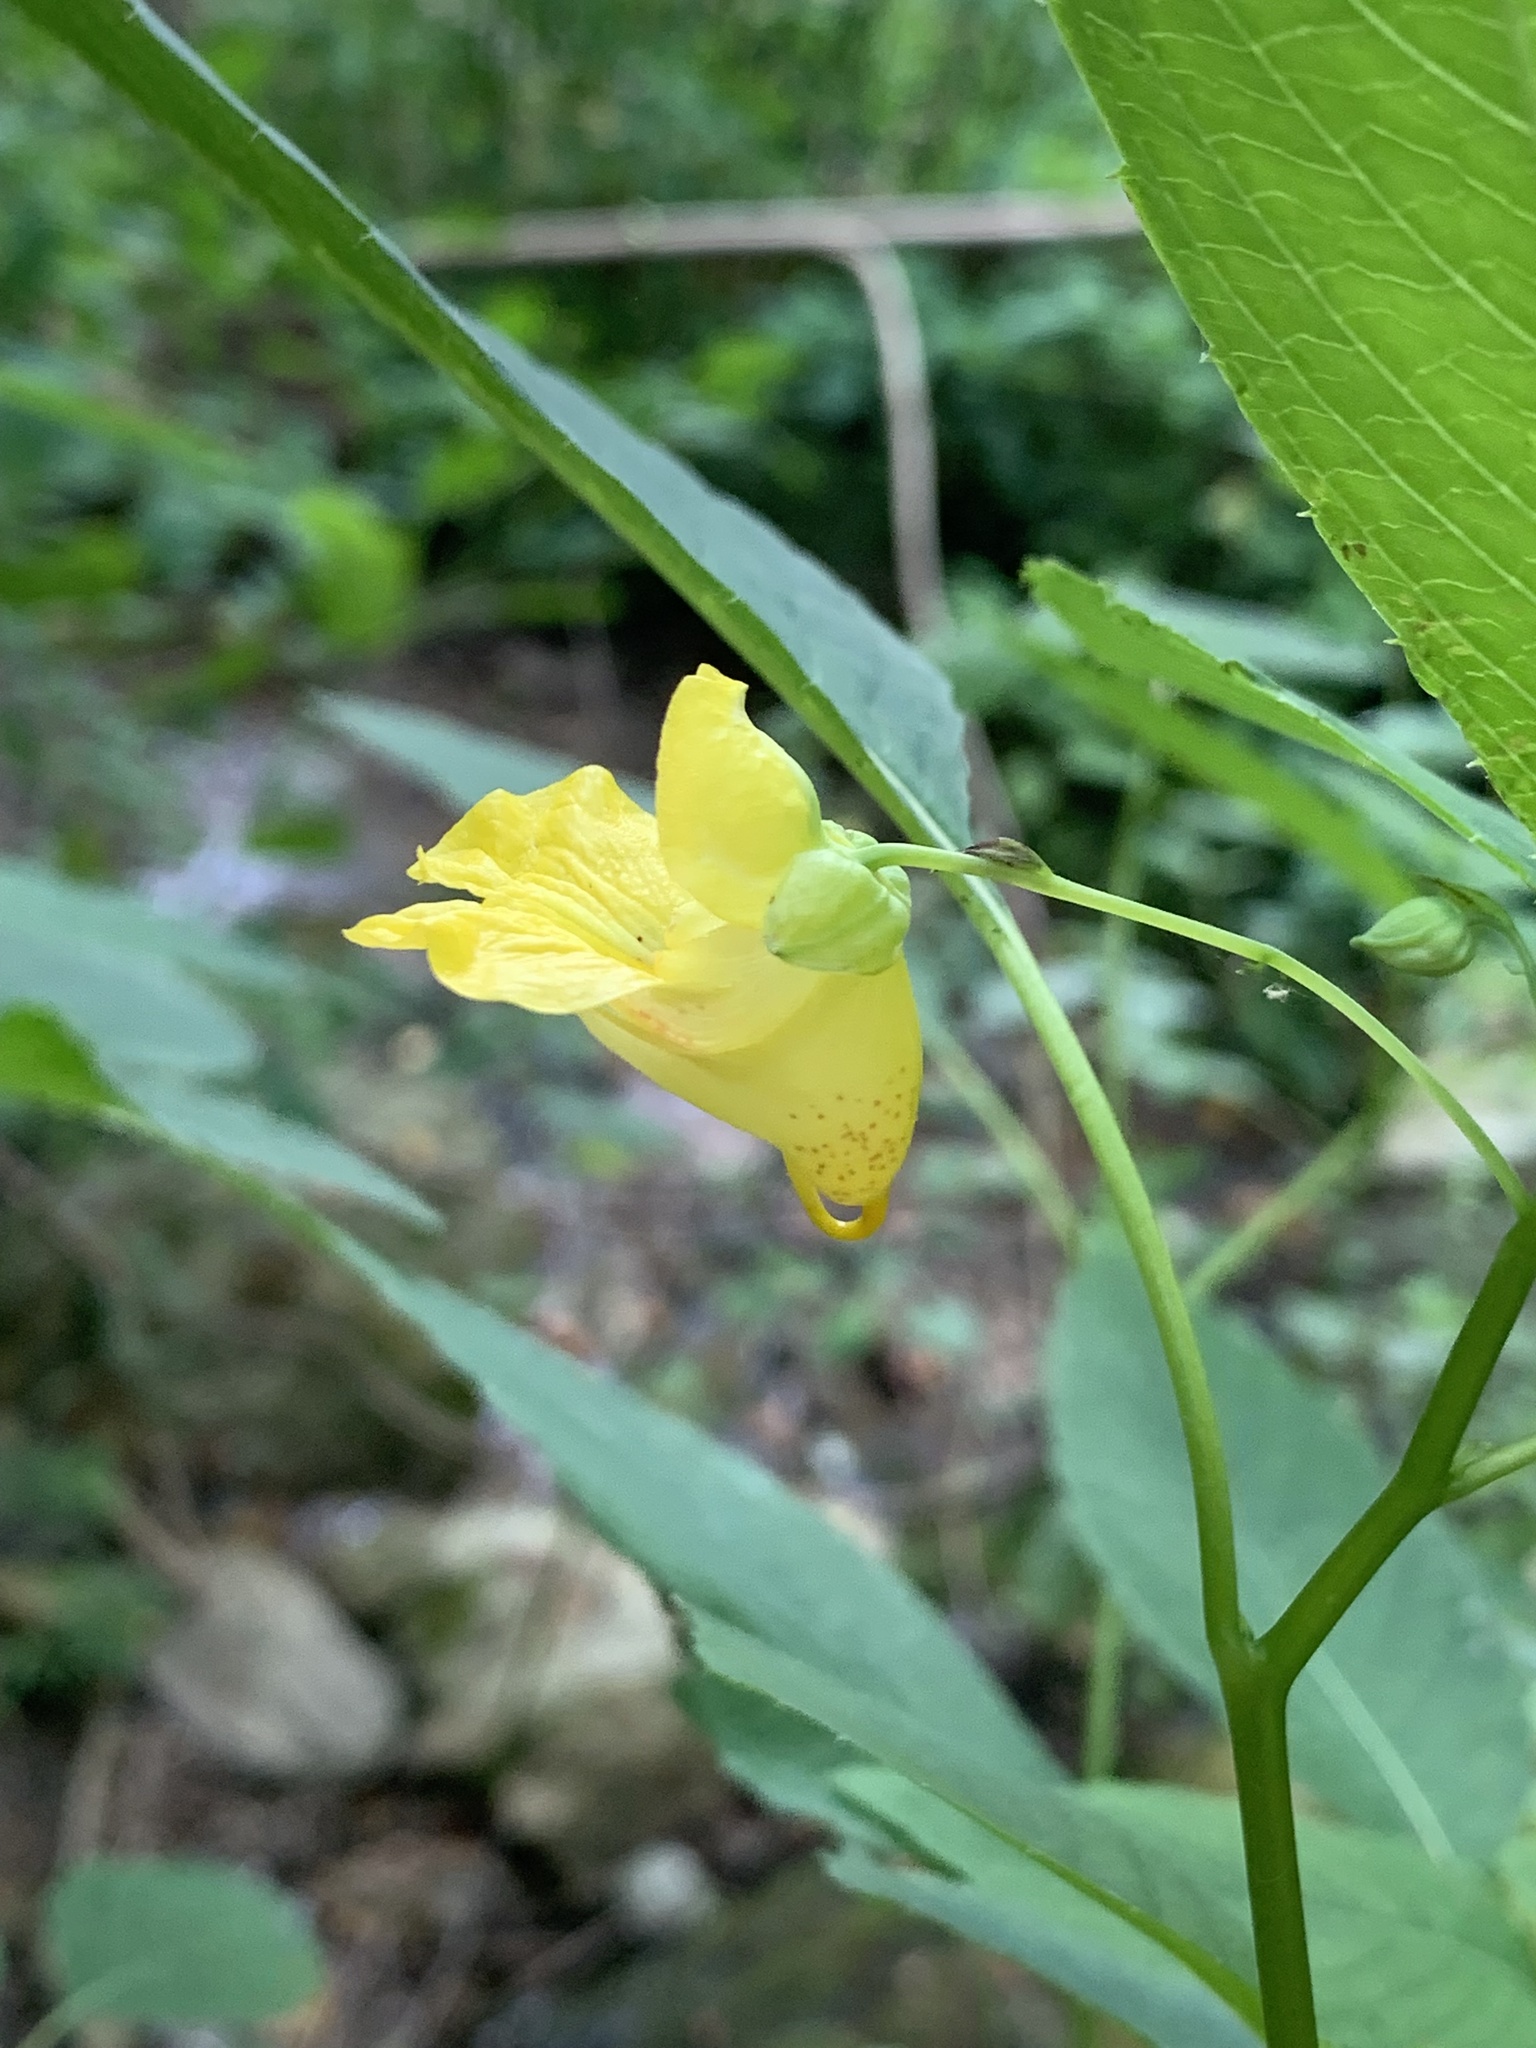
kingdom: Plantae
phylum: Tracheophyta
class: Magnoliopsida
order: Ericales
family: Balsaminaceae
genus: Impatiens
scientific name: Impatiens pallida
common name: Pale snapweed
